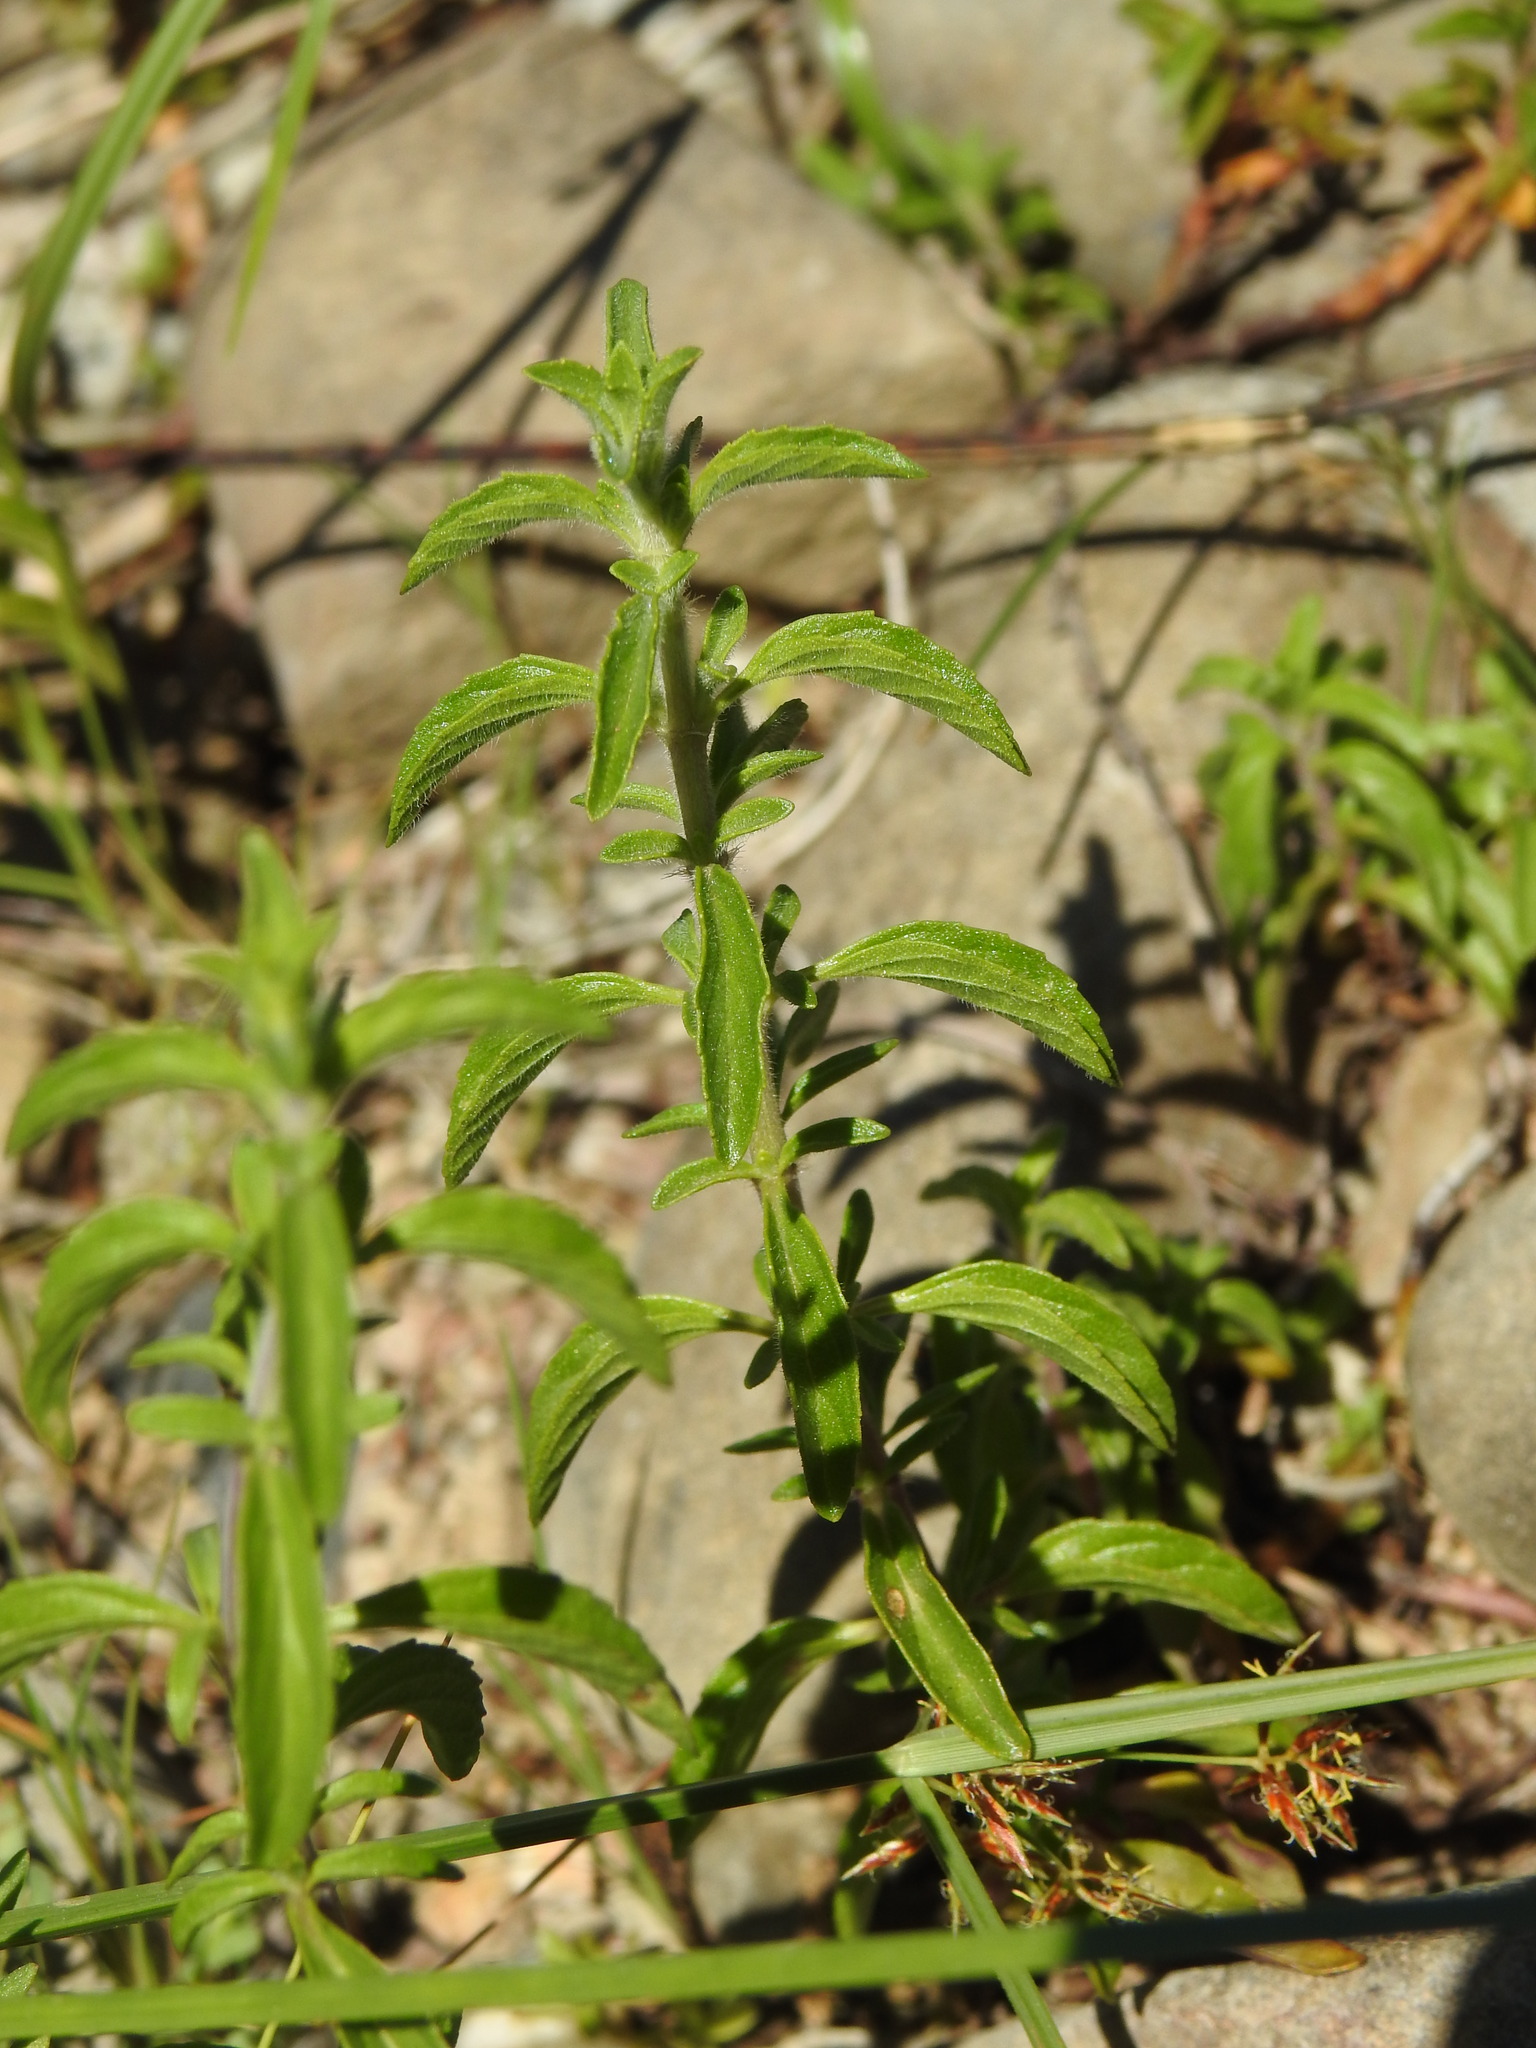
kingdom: Plantae
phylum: Tracheophyta
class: Magnoliopsida
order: Lamiales
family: Lamiaceae
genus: Mentha
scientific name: Mentha pulegium
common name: Pennyroyal
